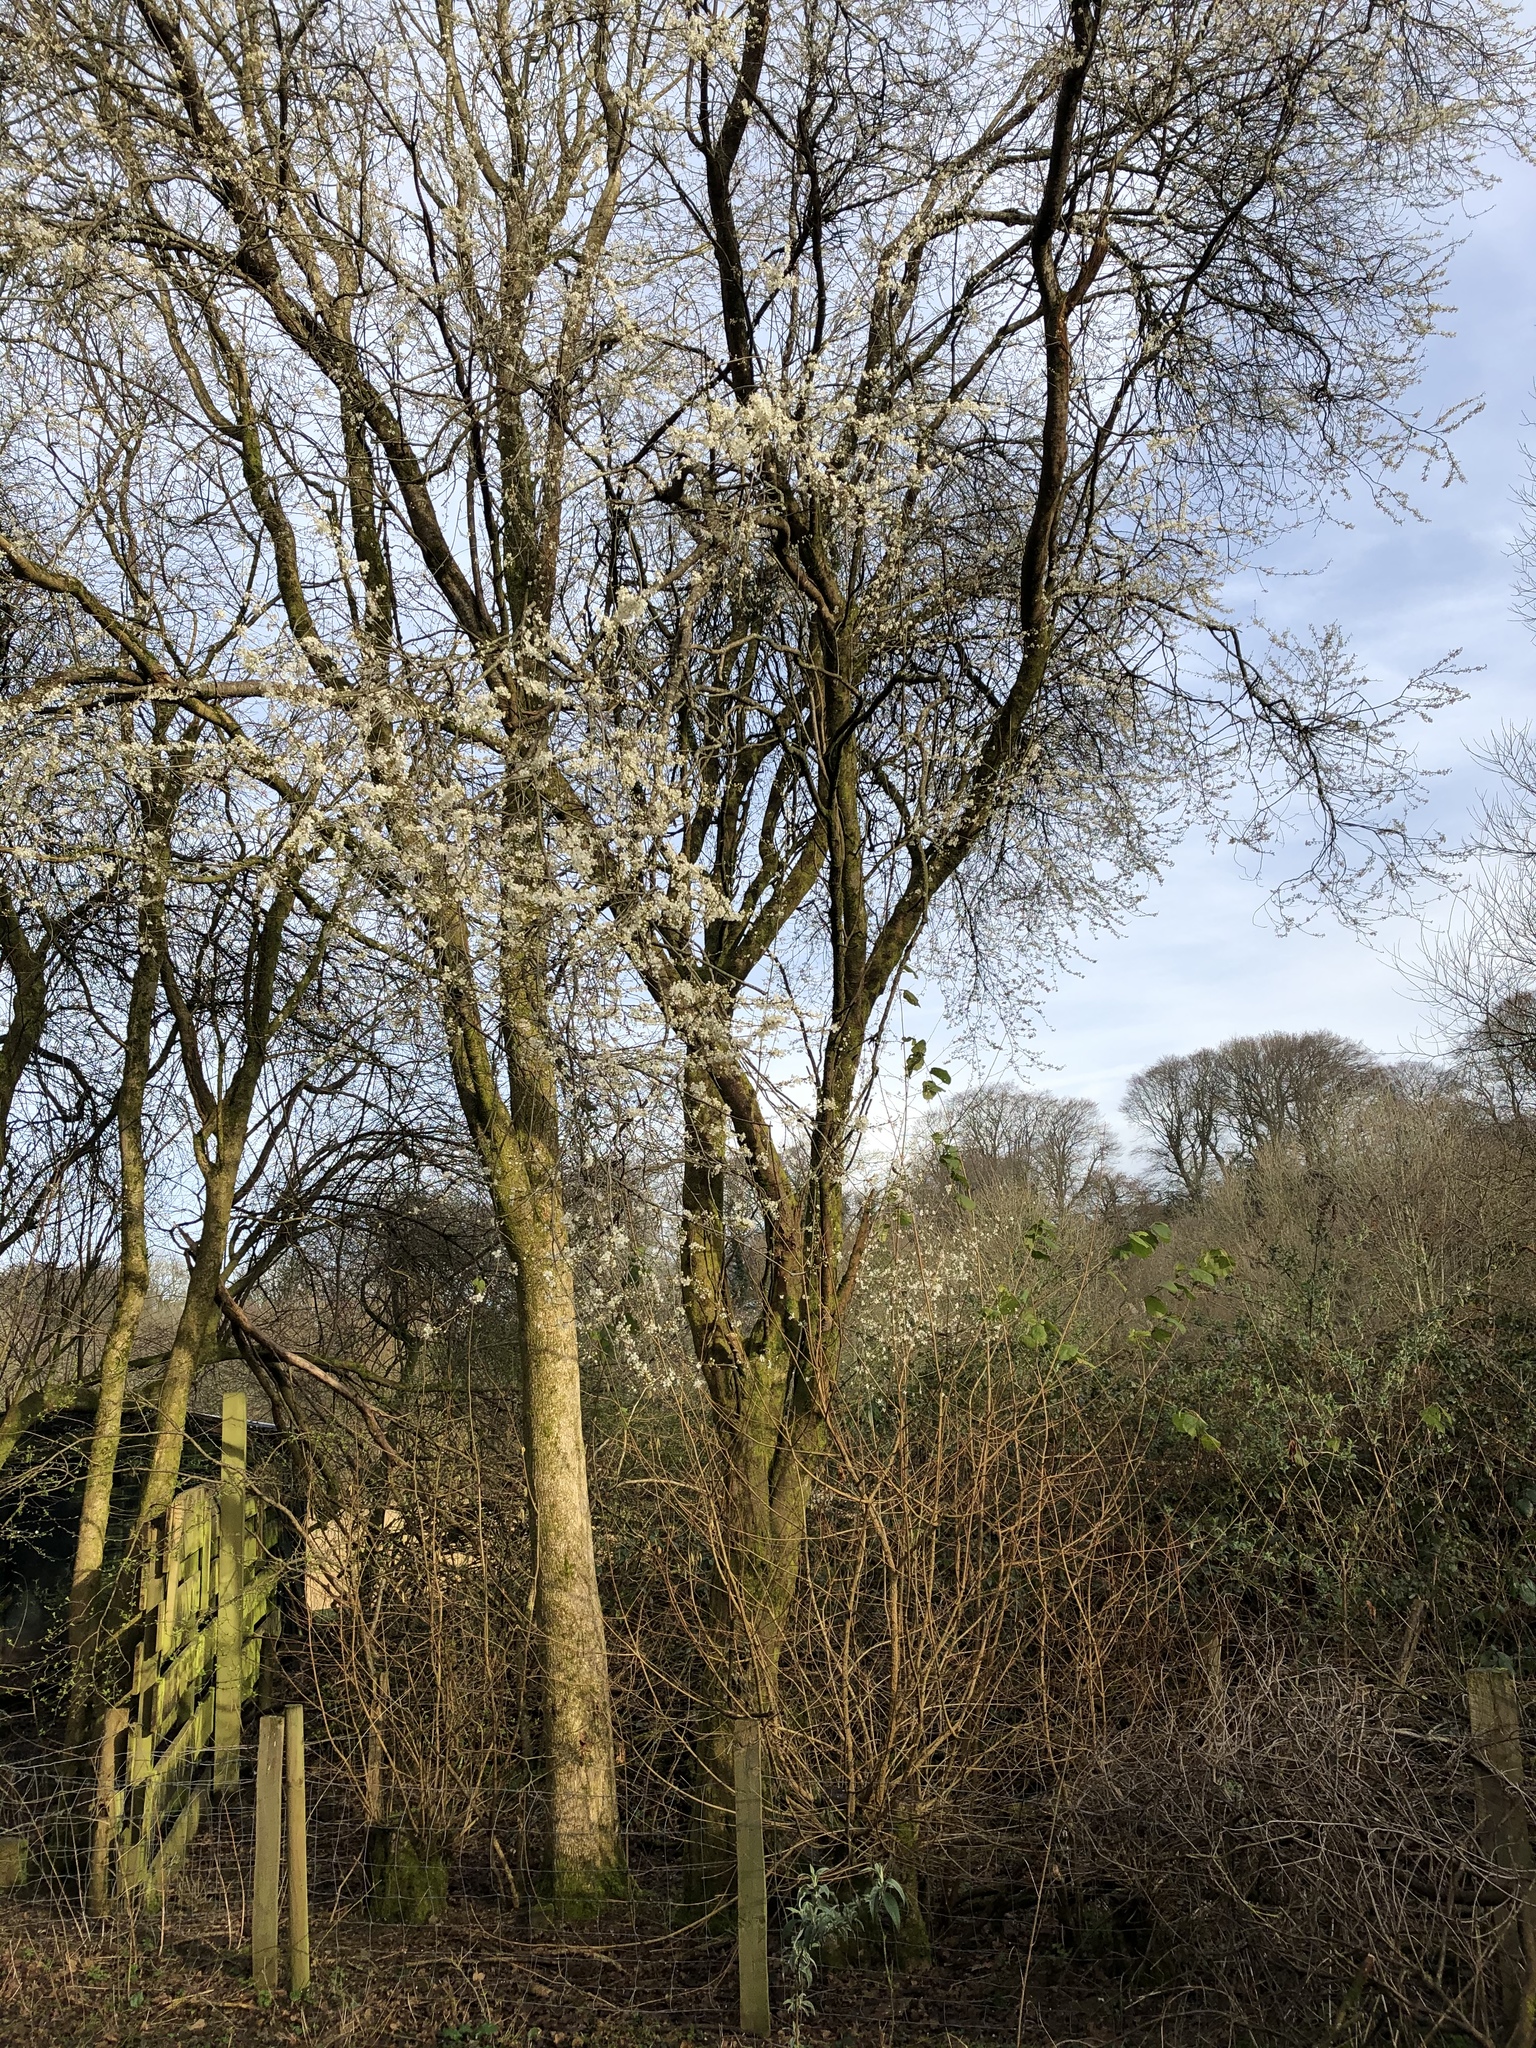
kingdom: Plantae
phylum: Tracheophyta
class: Magnoliopsida
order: Rosales
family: Rosaceae
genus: Prunus
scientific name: Prunus cerasifera
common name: Cherry plum
